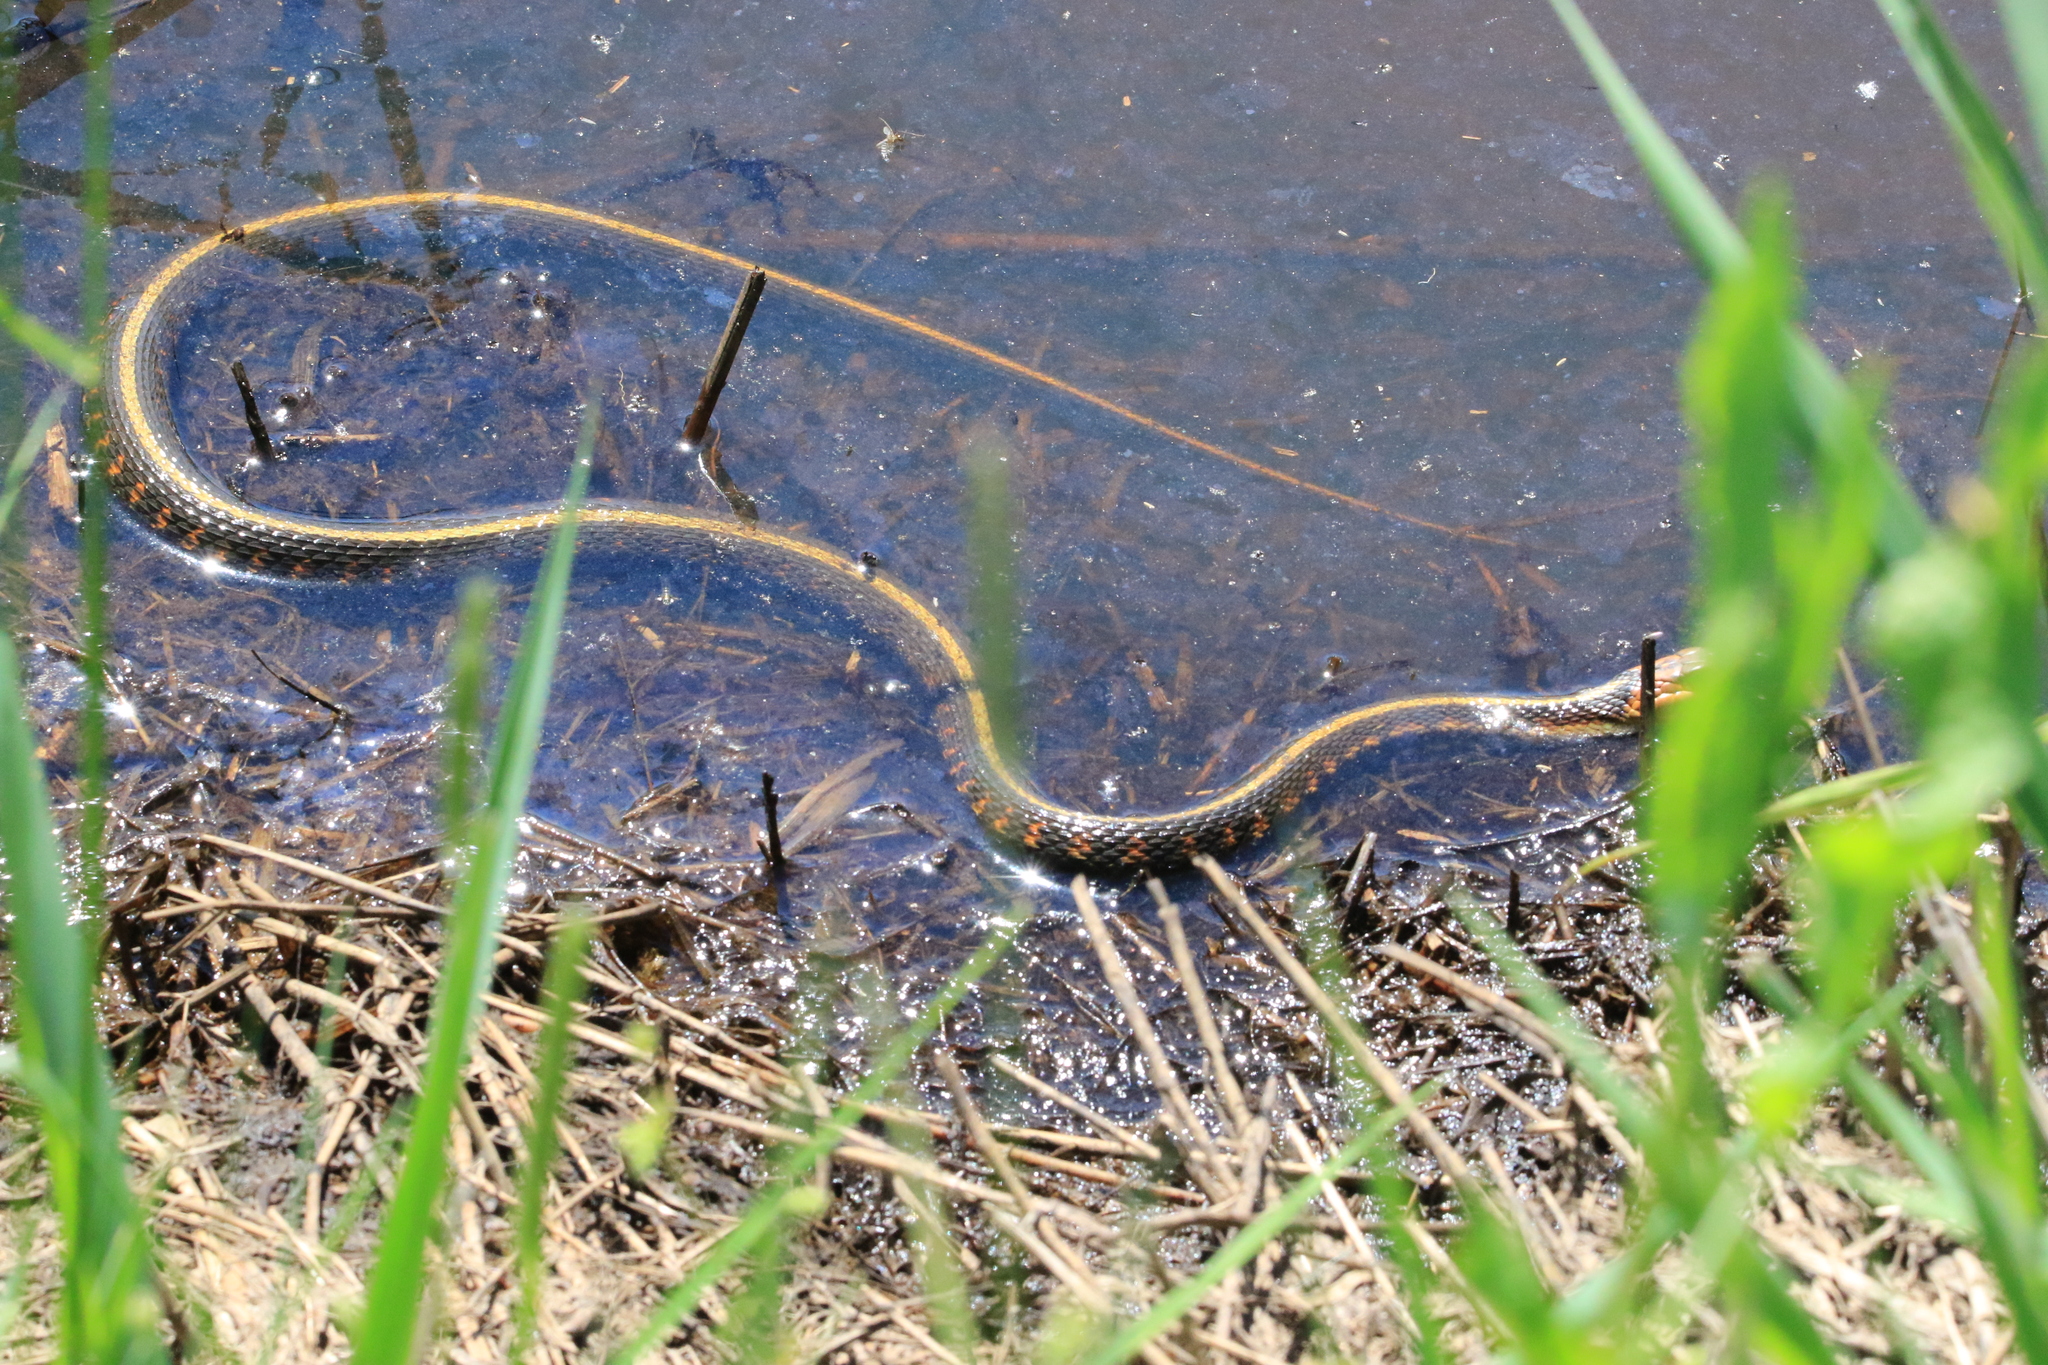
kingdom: Animalia
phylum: Chordata
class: Squamata
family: Colubridae
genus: Thamnophis
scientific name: Thamnophis sirtalis
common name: Common garter snake
